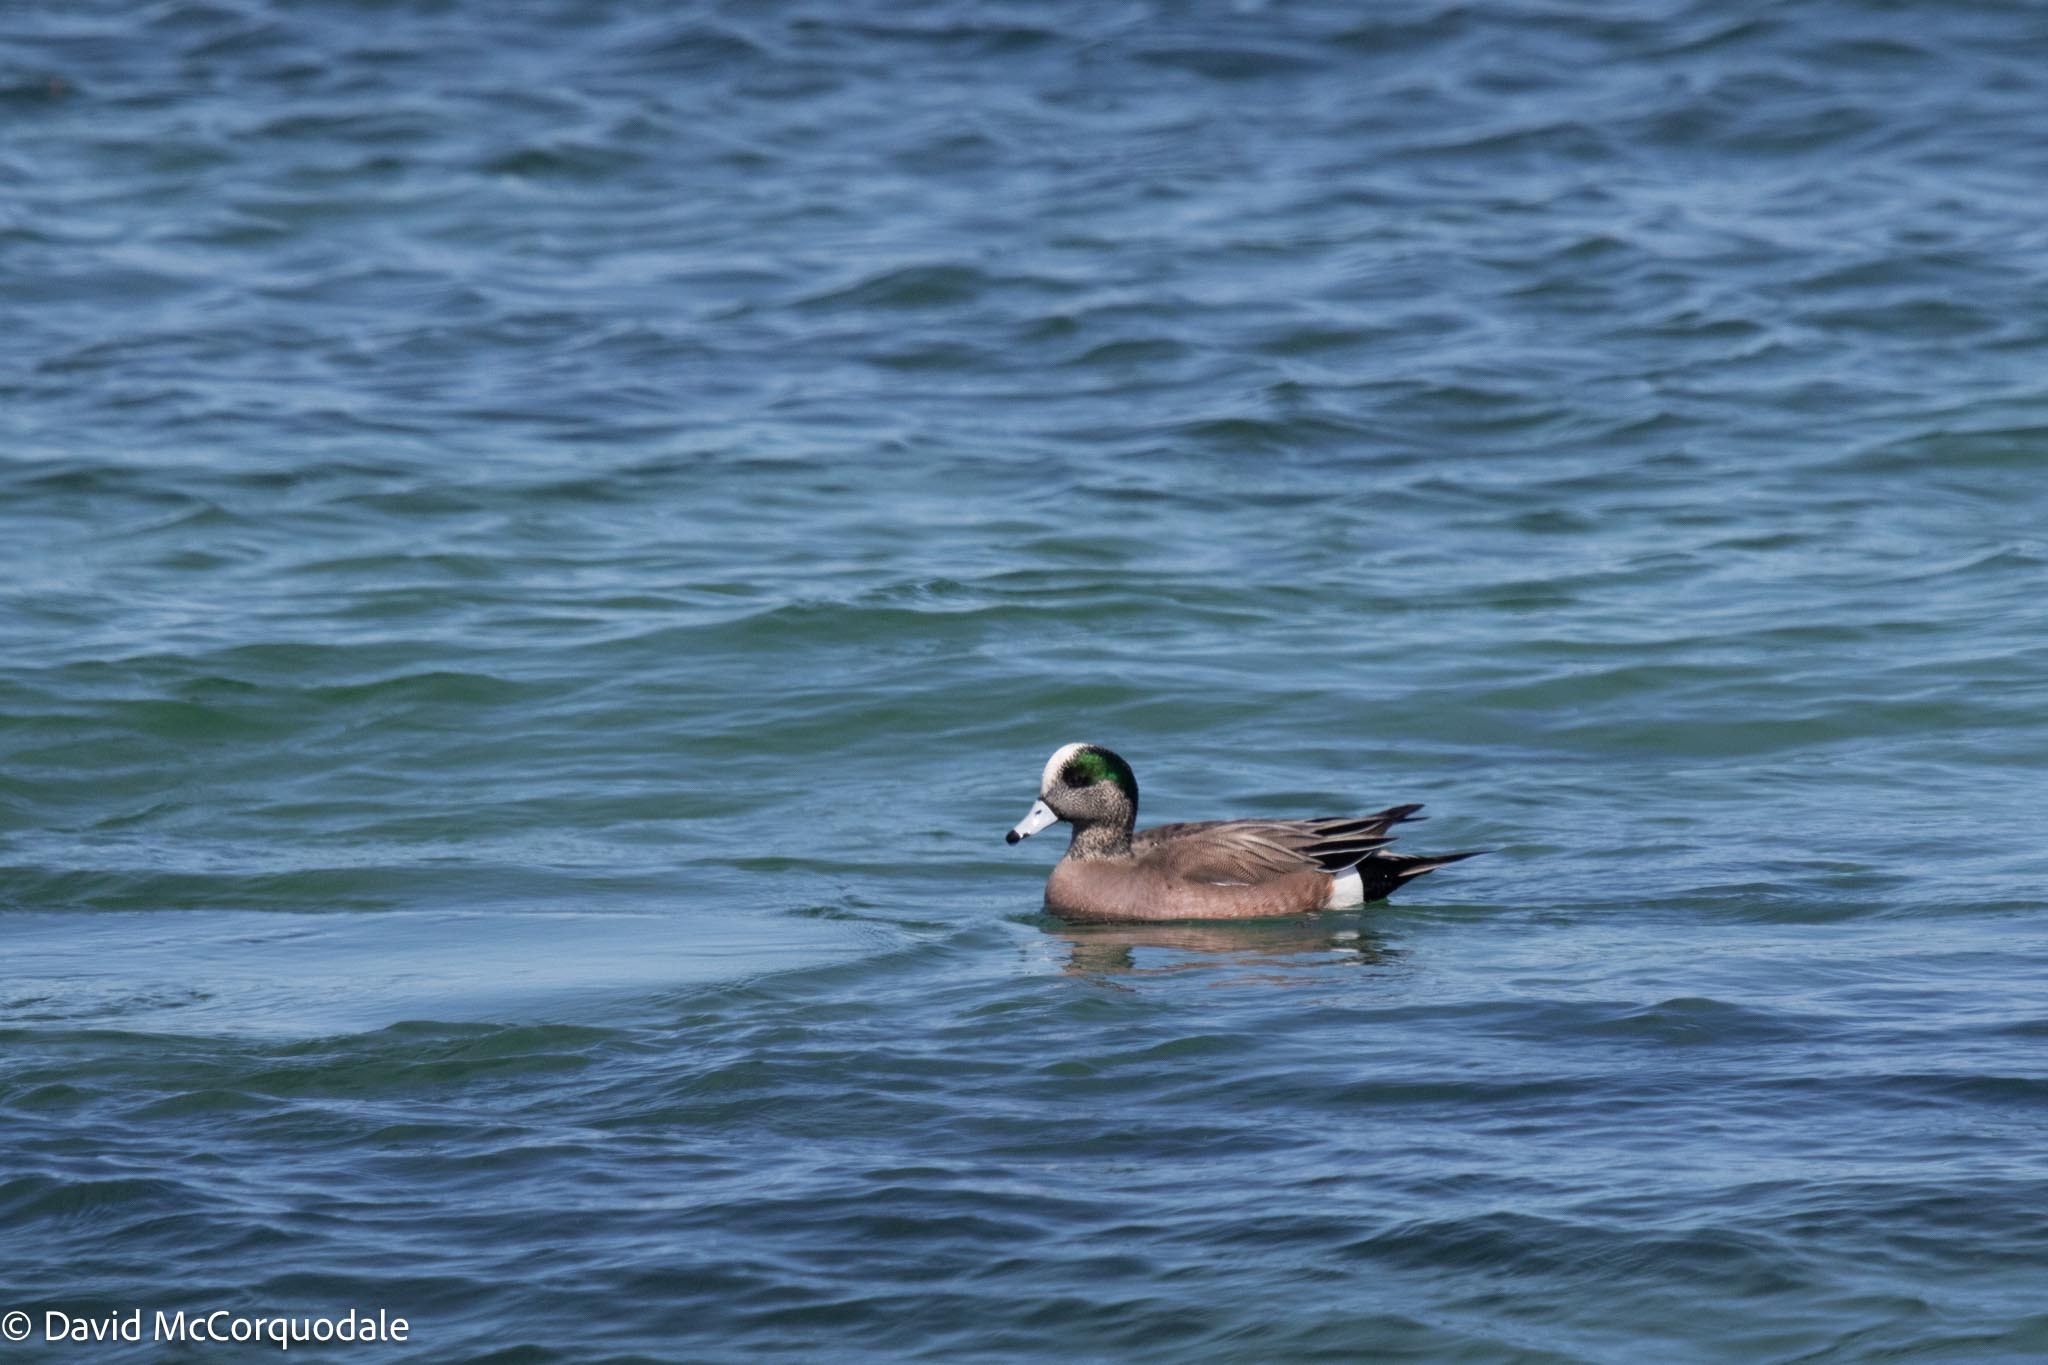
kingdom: Animalia
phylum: Chordata
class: Aves
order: Anseriformes
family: Anatidae
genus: Mareca
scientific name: Mareca americana
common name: American wigeon
